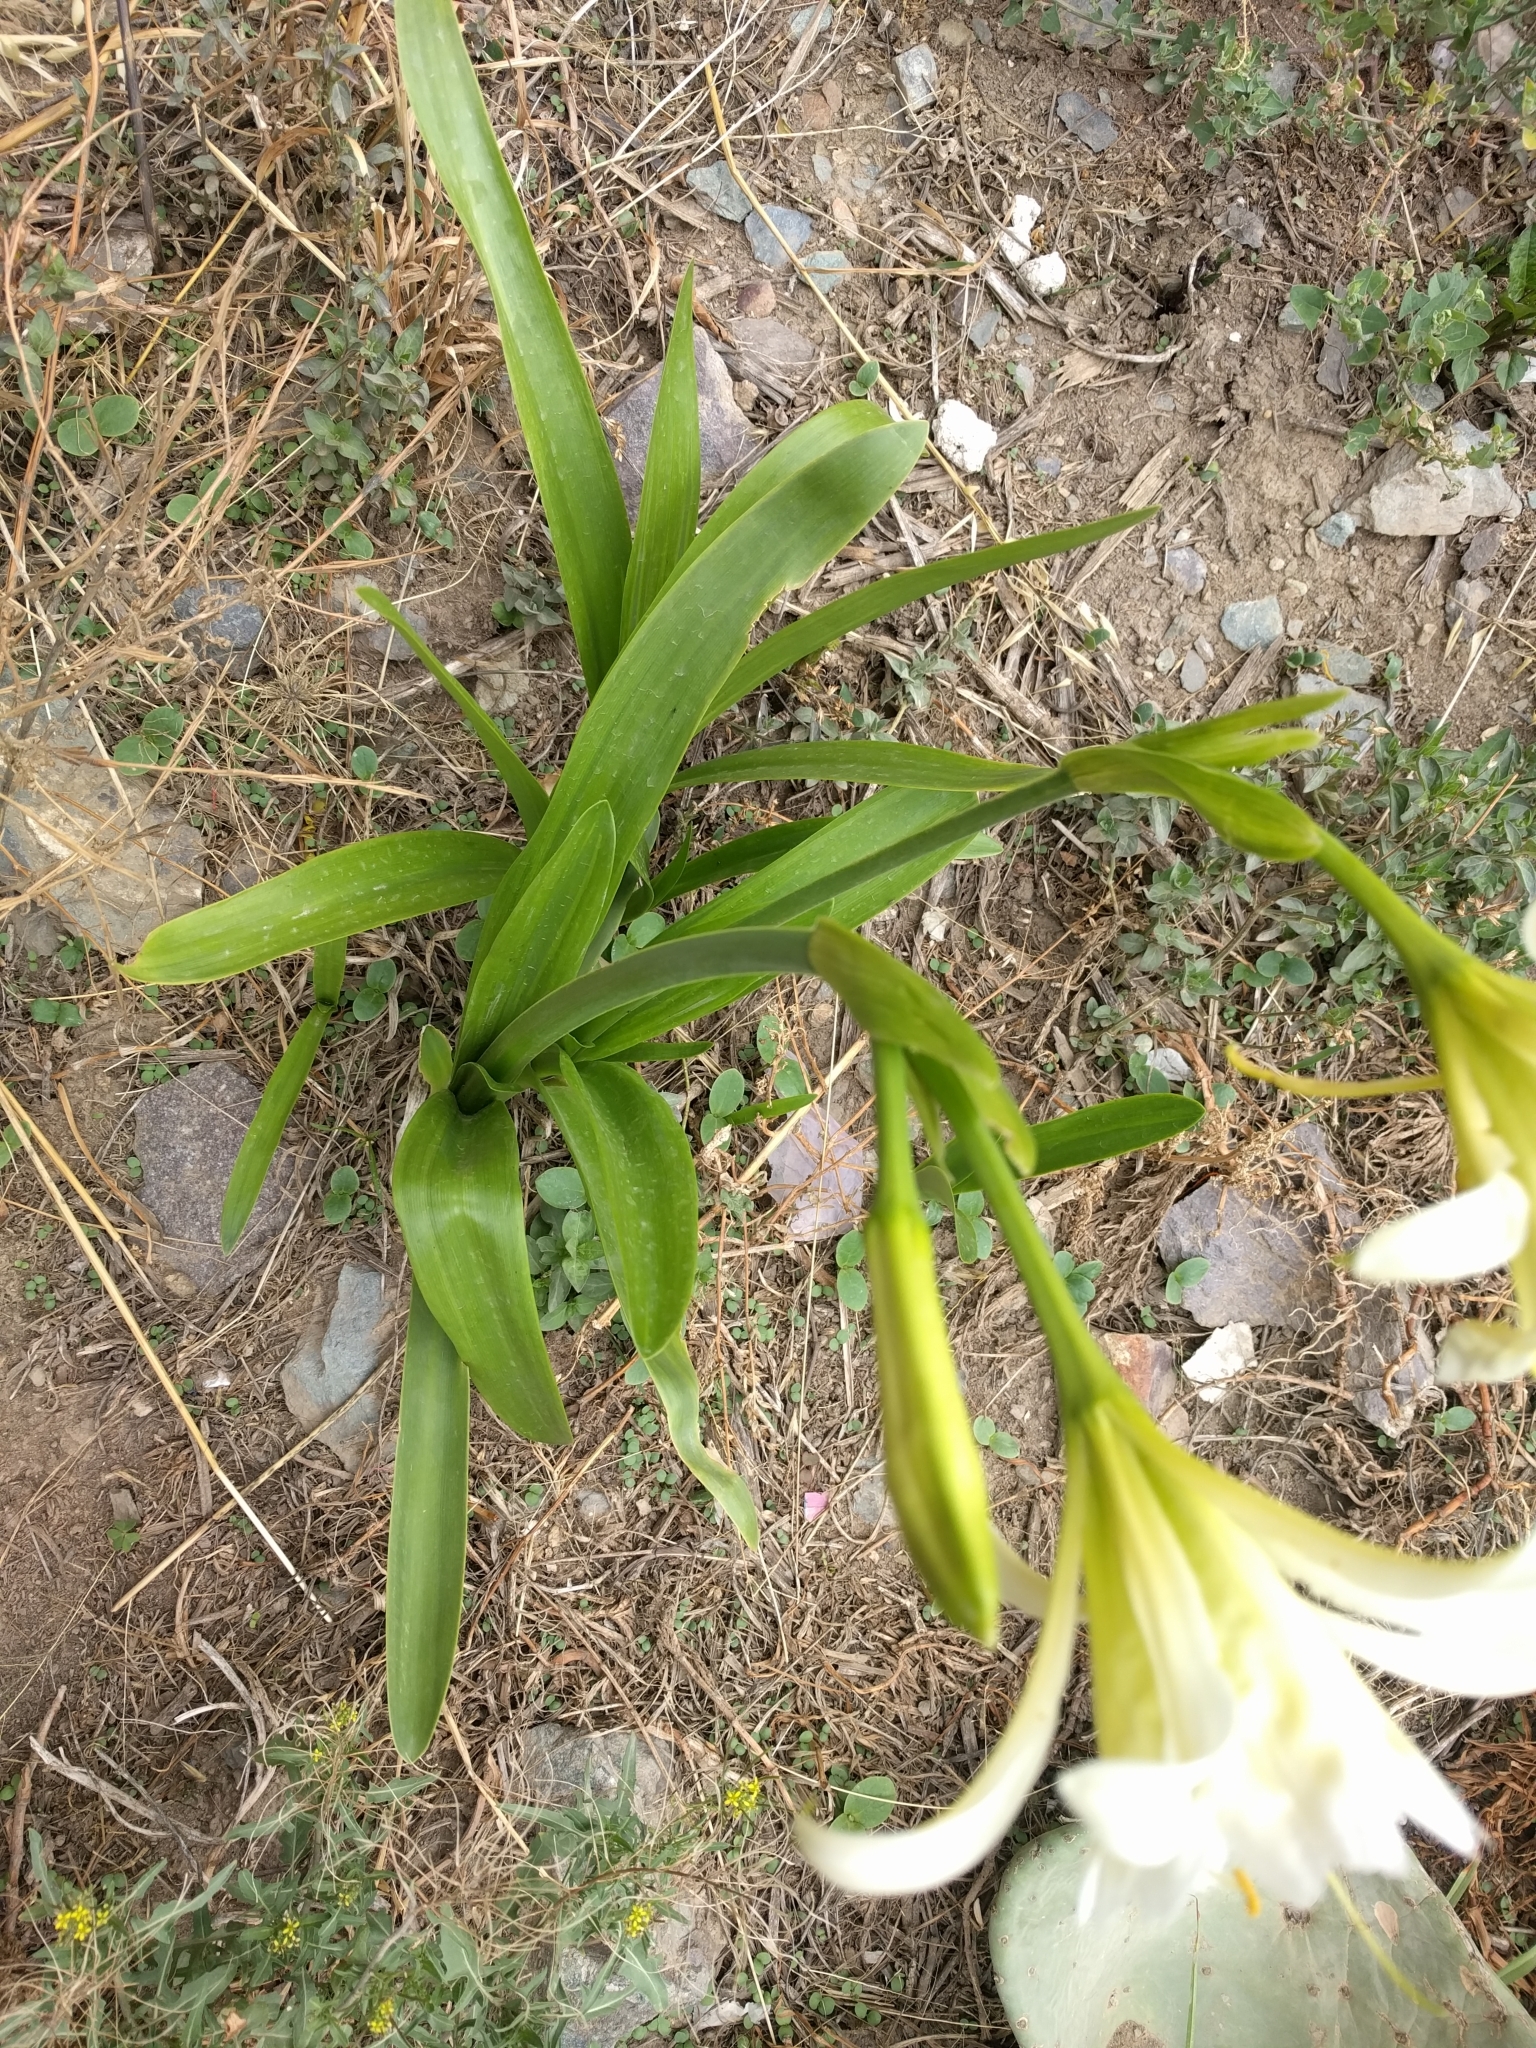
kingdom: Plantae
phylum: Tracheophyta
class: Liliopsida
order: Asparagales
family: Amaryllidaceae
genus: Ismene
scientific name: Ismene hawkesii
